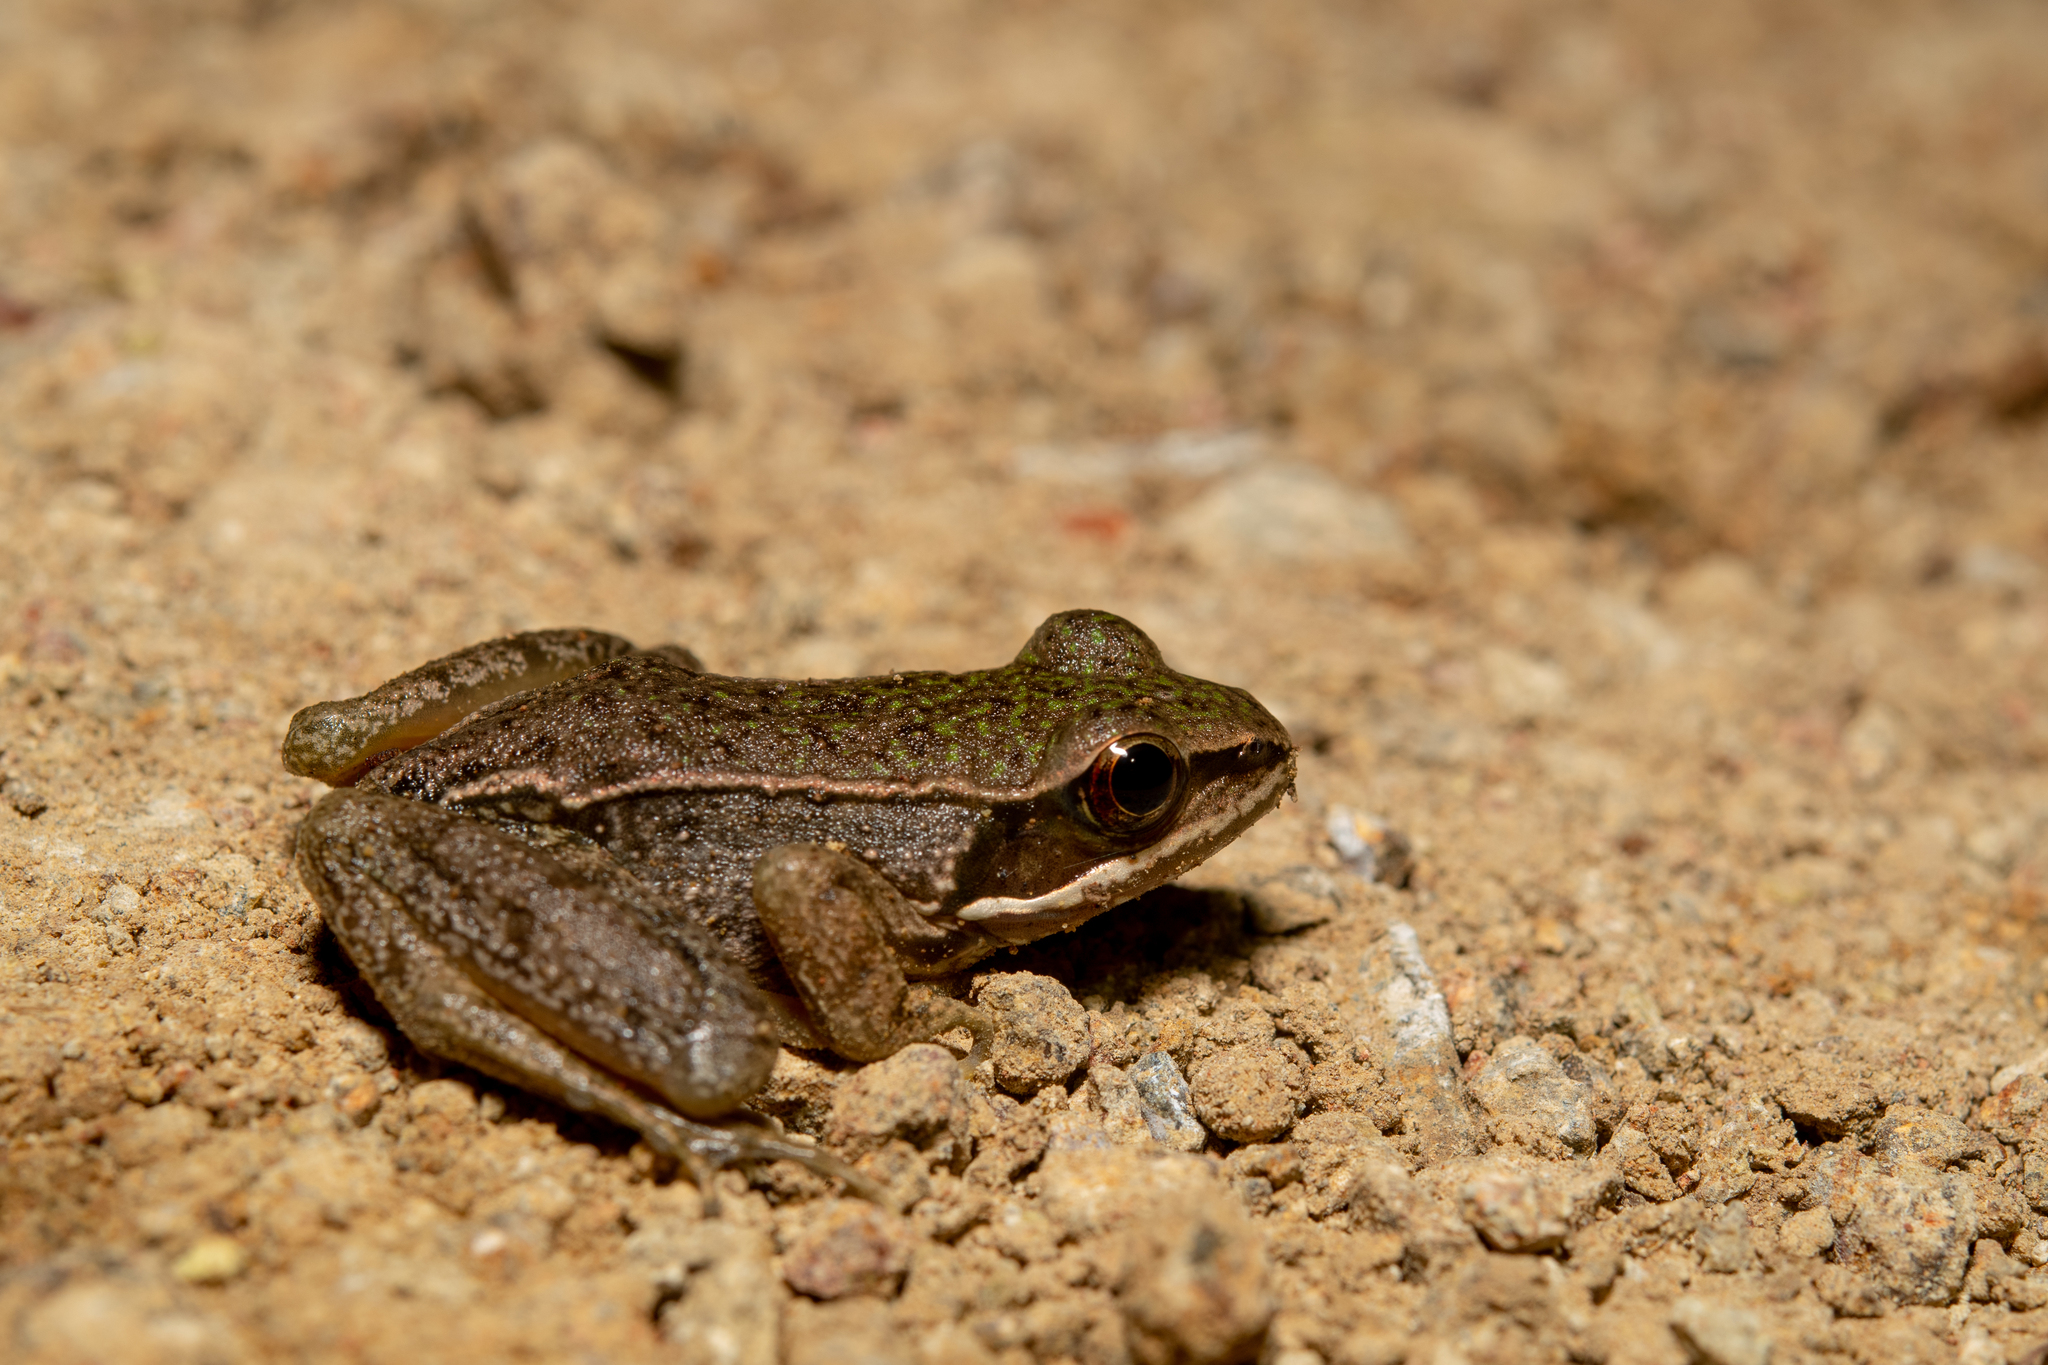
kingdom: Animalia
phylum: Chordata
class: Amphibia
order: Anura
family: Ranidae
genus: Lithobates
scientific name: Lithobates maculatus
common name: Highland frog
